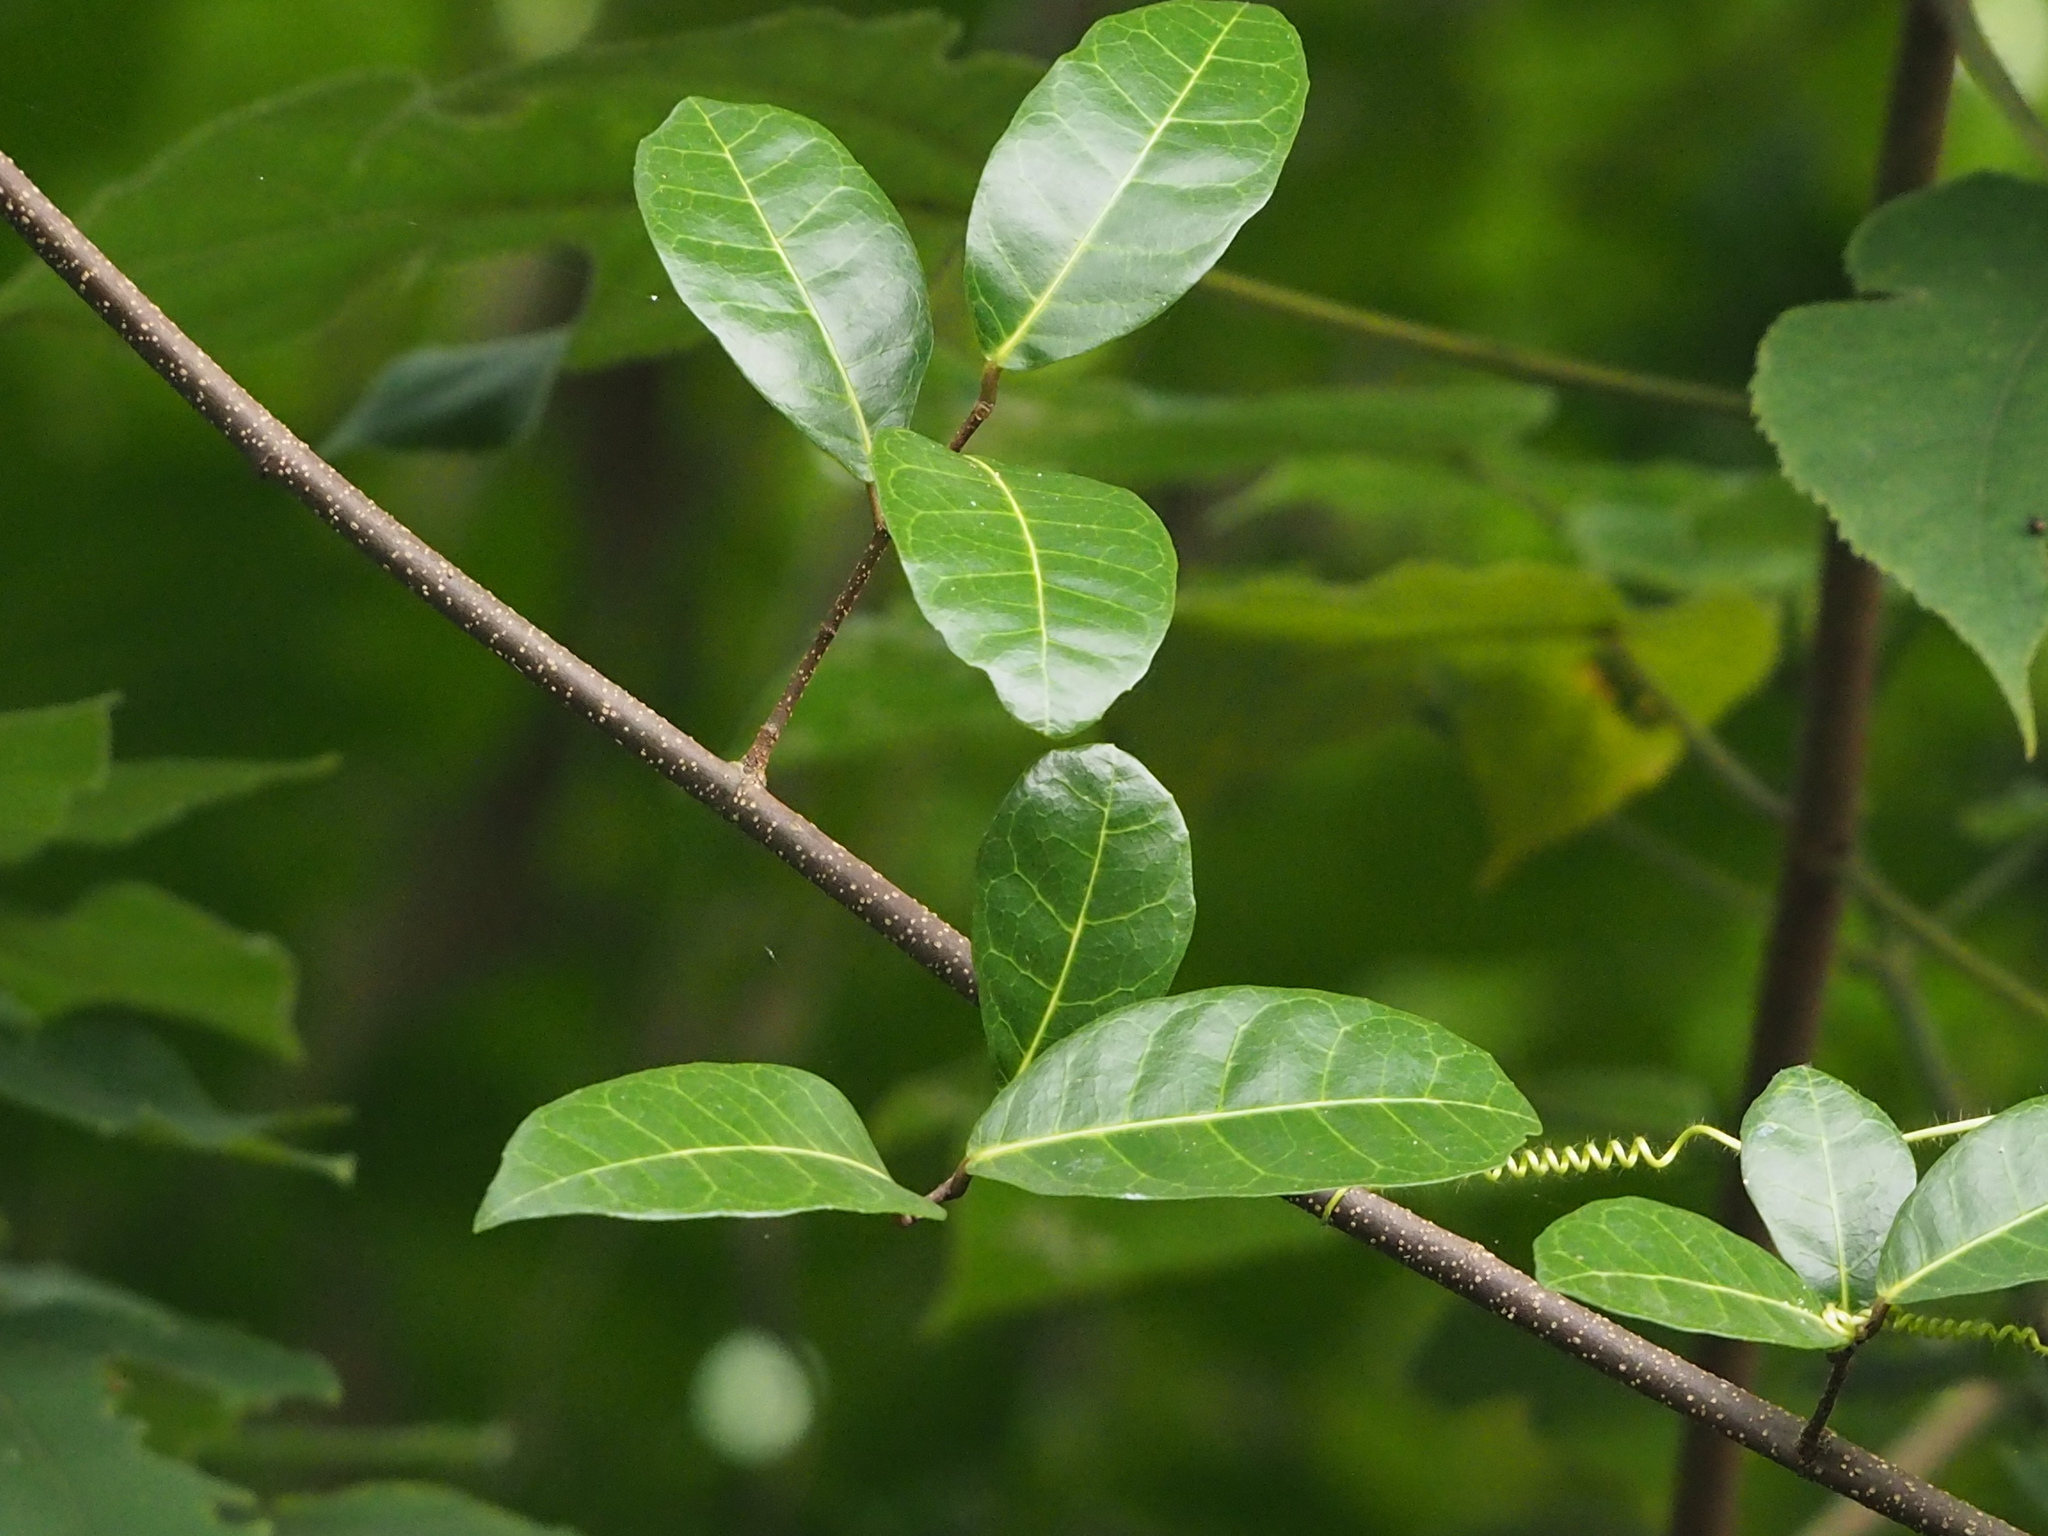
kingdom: Plantae
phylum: Tracheophyta
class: Magnoliopsida
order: Rosales
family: Moraceae
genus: Malaisia
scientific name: Malaisia scandens
